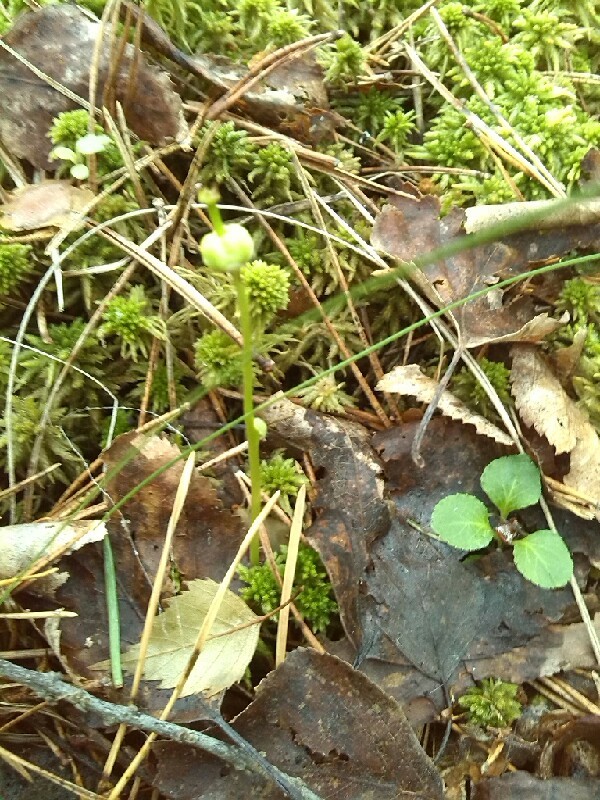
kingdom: Plantae
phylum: Tracheophyta
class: Magnoliopsida
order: Ericales
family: Ericaceae
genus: Moneses
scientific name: Moneses uniflora
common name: One-flowered wintergreen
